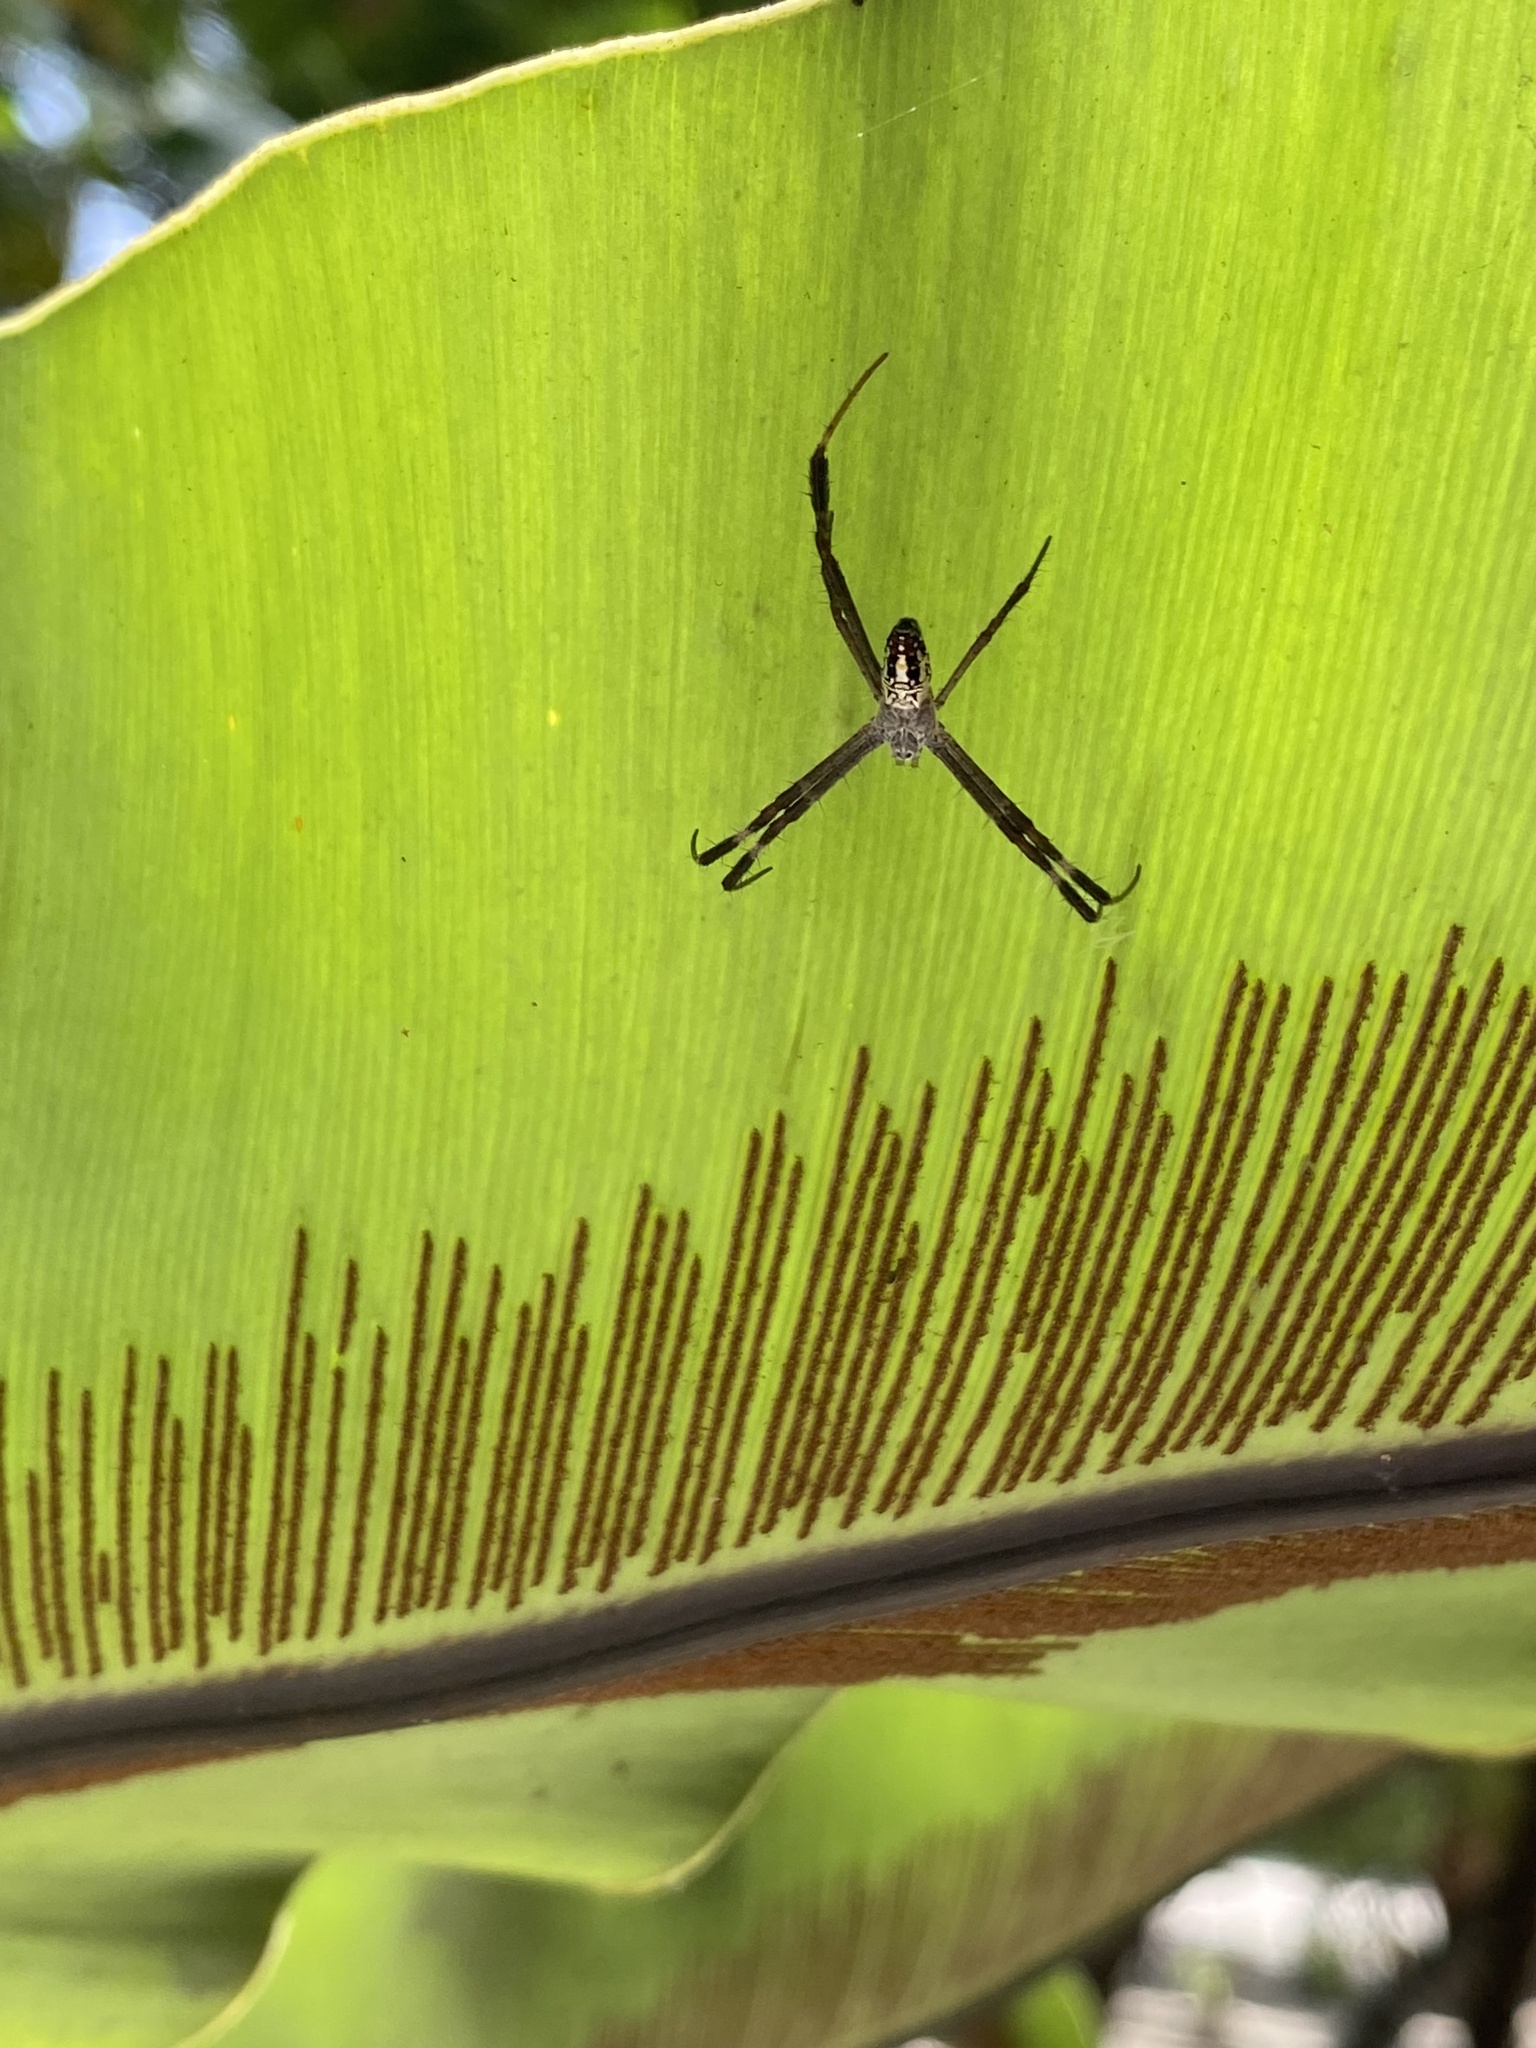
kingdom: Animalia
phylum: Arthropoda
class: Arachnida
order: Araneae
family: Araneidae
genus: Argiope
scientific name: Argiope dang
